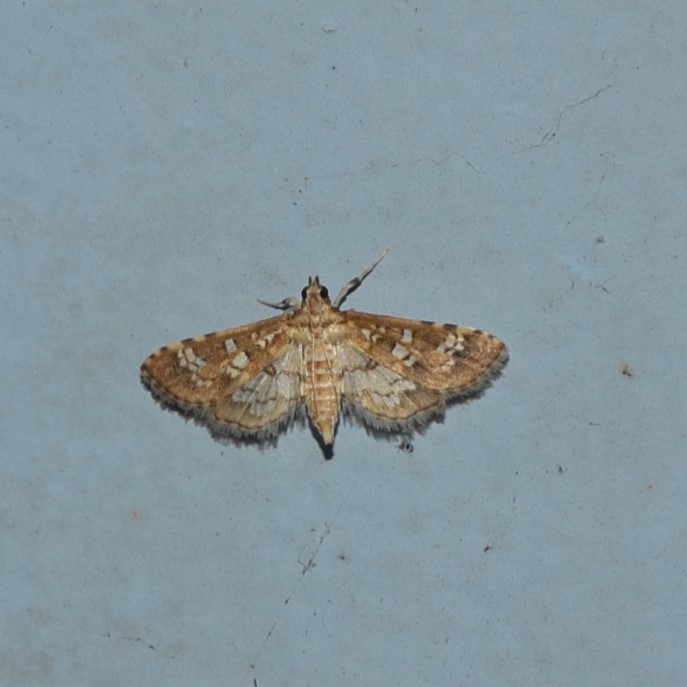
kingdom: Animalia
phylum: Arthropoda
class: Insecta
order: Lepidoptera
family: Crambidae
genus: Samea
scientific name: Samea multiplicalis
